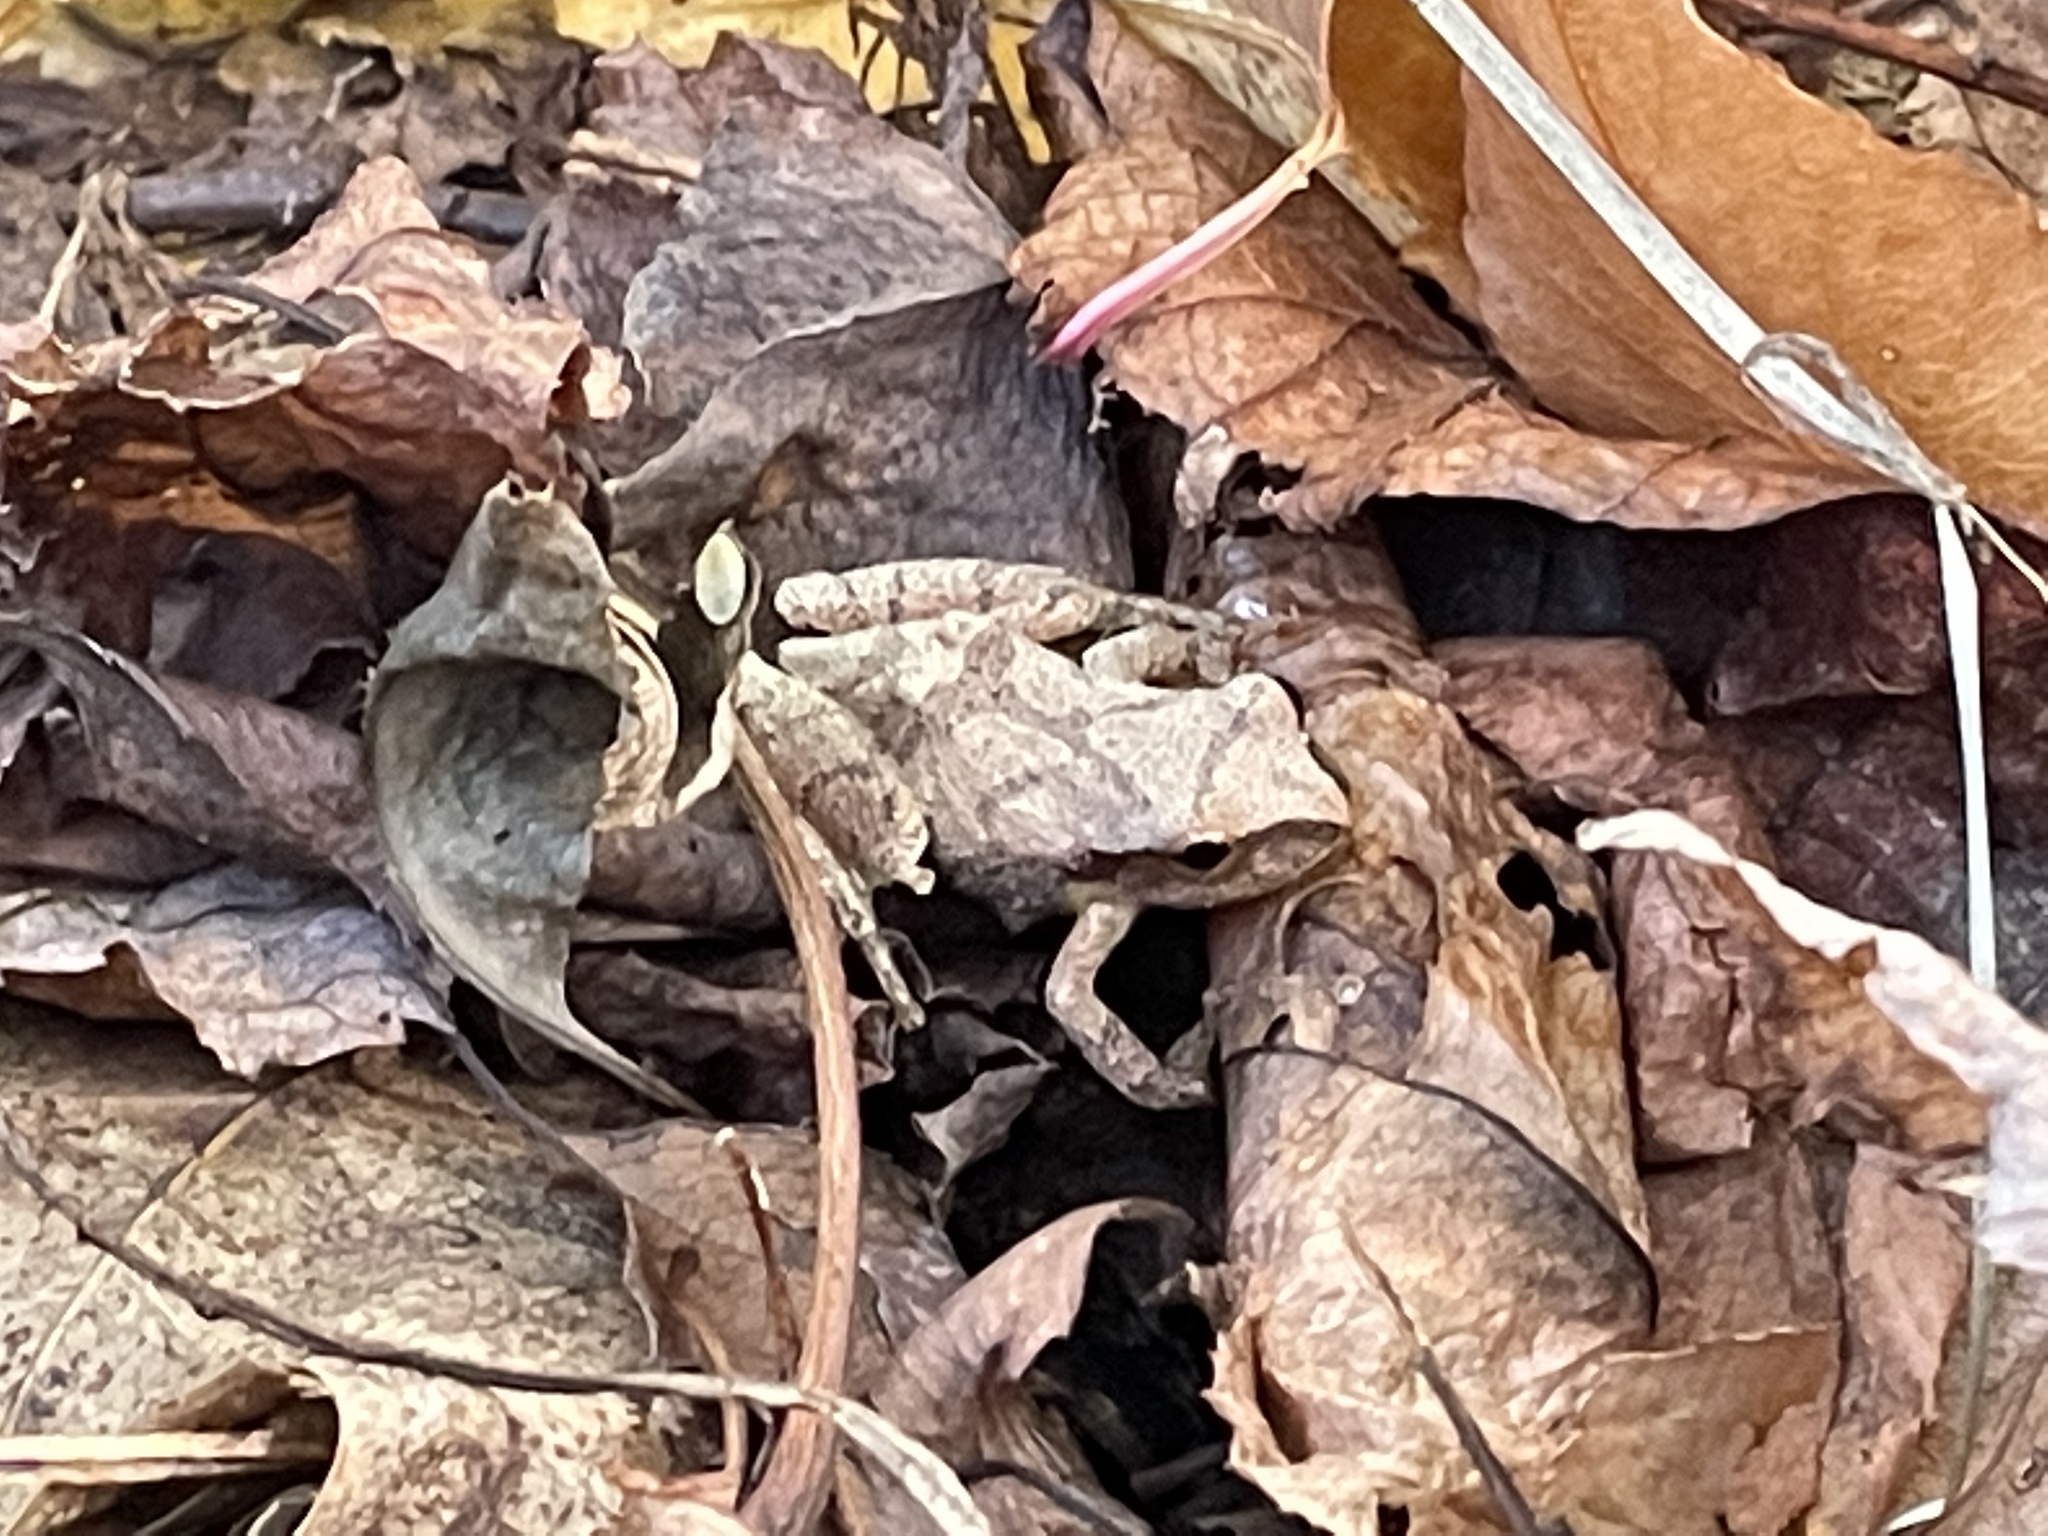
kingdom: Animalia
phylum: Chordata
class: Amphibia
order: Anura
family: Hylidae
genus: Pseudacris
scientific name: Pseudacris crucifer
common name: Spring peeper
